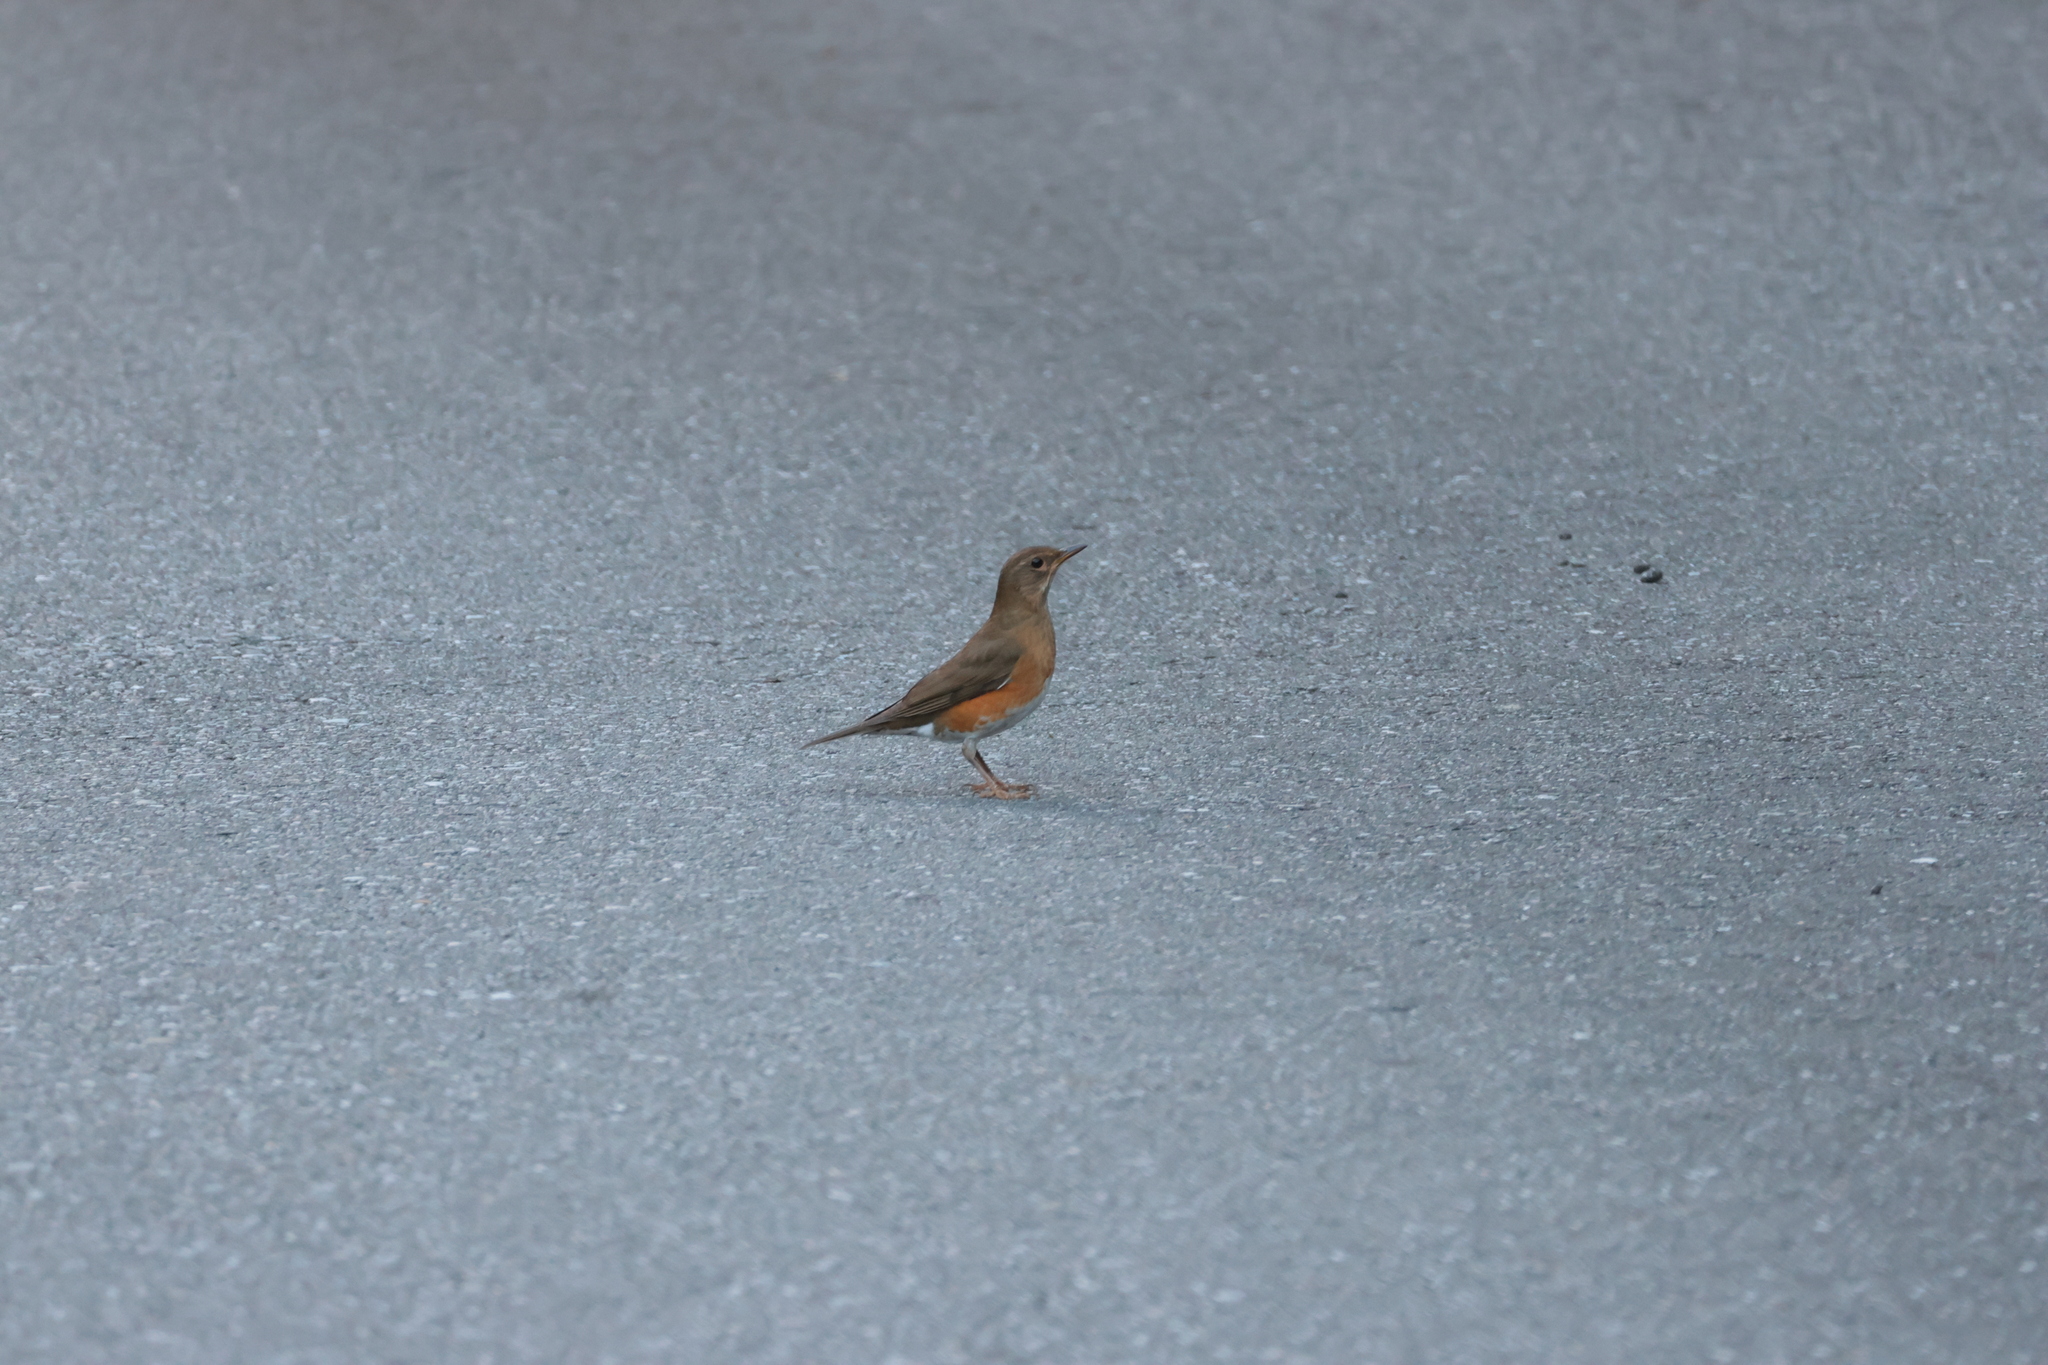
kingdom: Animalia
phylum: Chordata
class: Aves
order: Passeriformes
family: Turdidae
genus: Turdus
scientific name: Turdus chrysolaus
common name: Brown-headed thrush
